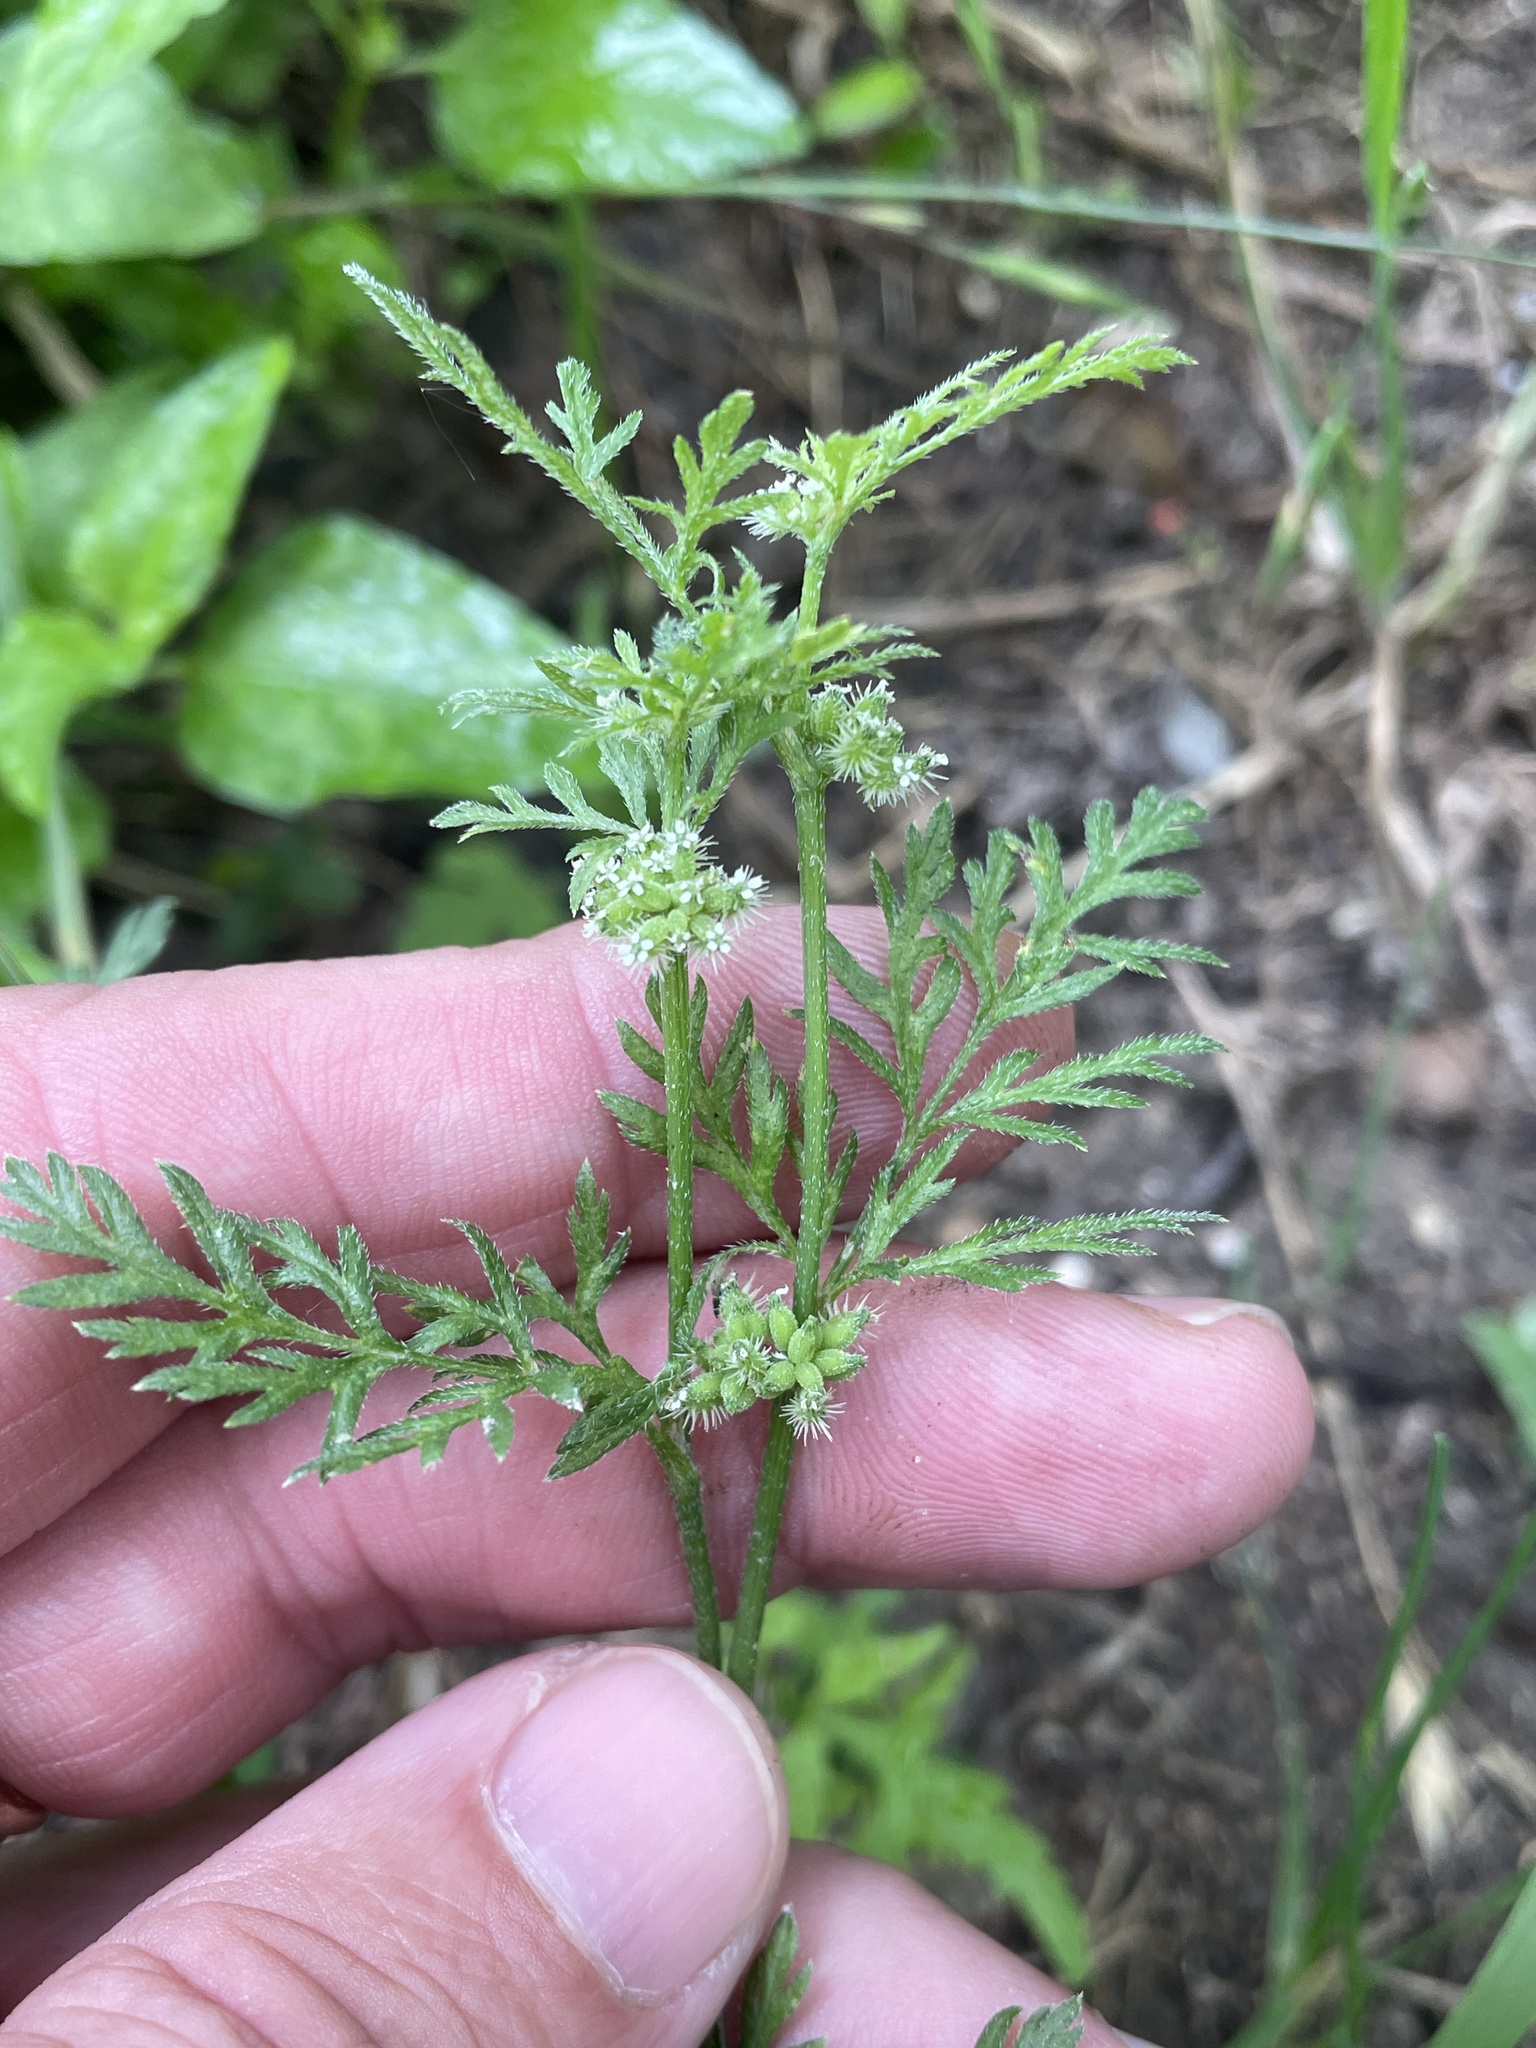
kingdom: Plantae
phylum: Tracheophyta
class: Magnoliopsida
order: Apiales
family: Apiaceae
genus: Torilis
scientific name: Torilis nodosa
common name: Knotted hedge-parsley
